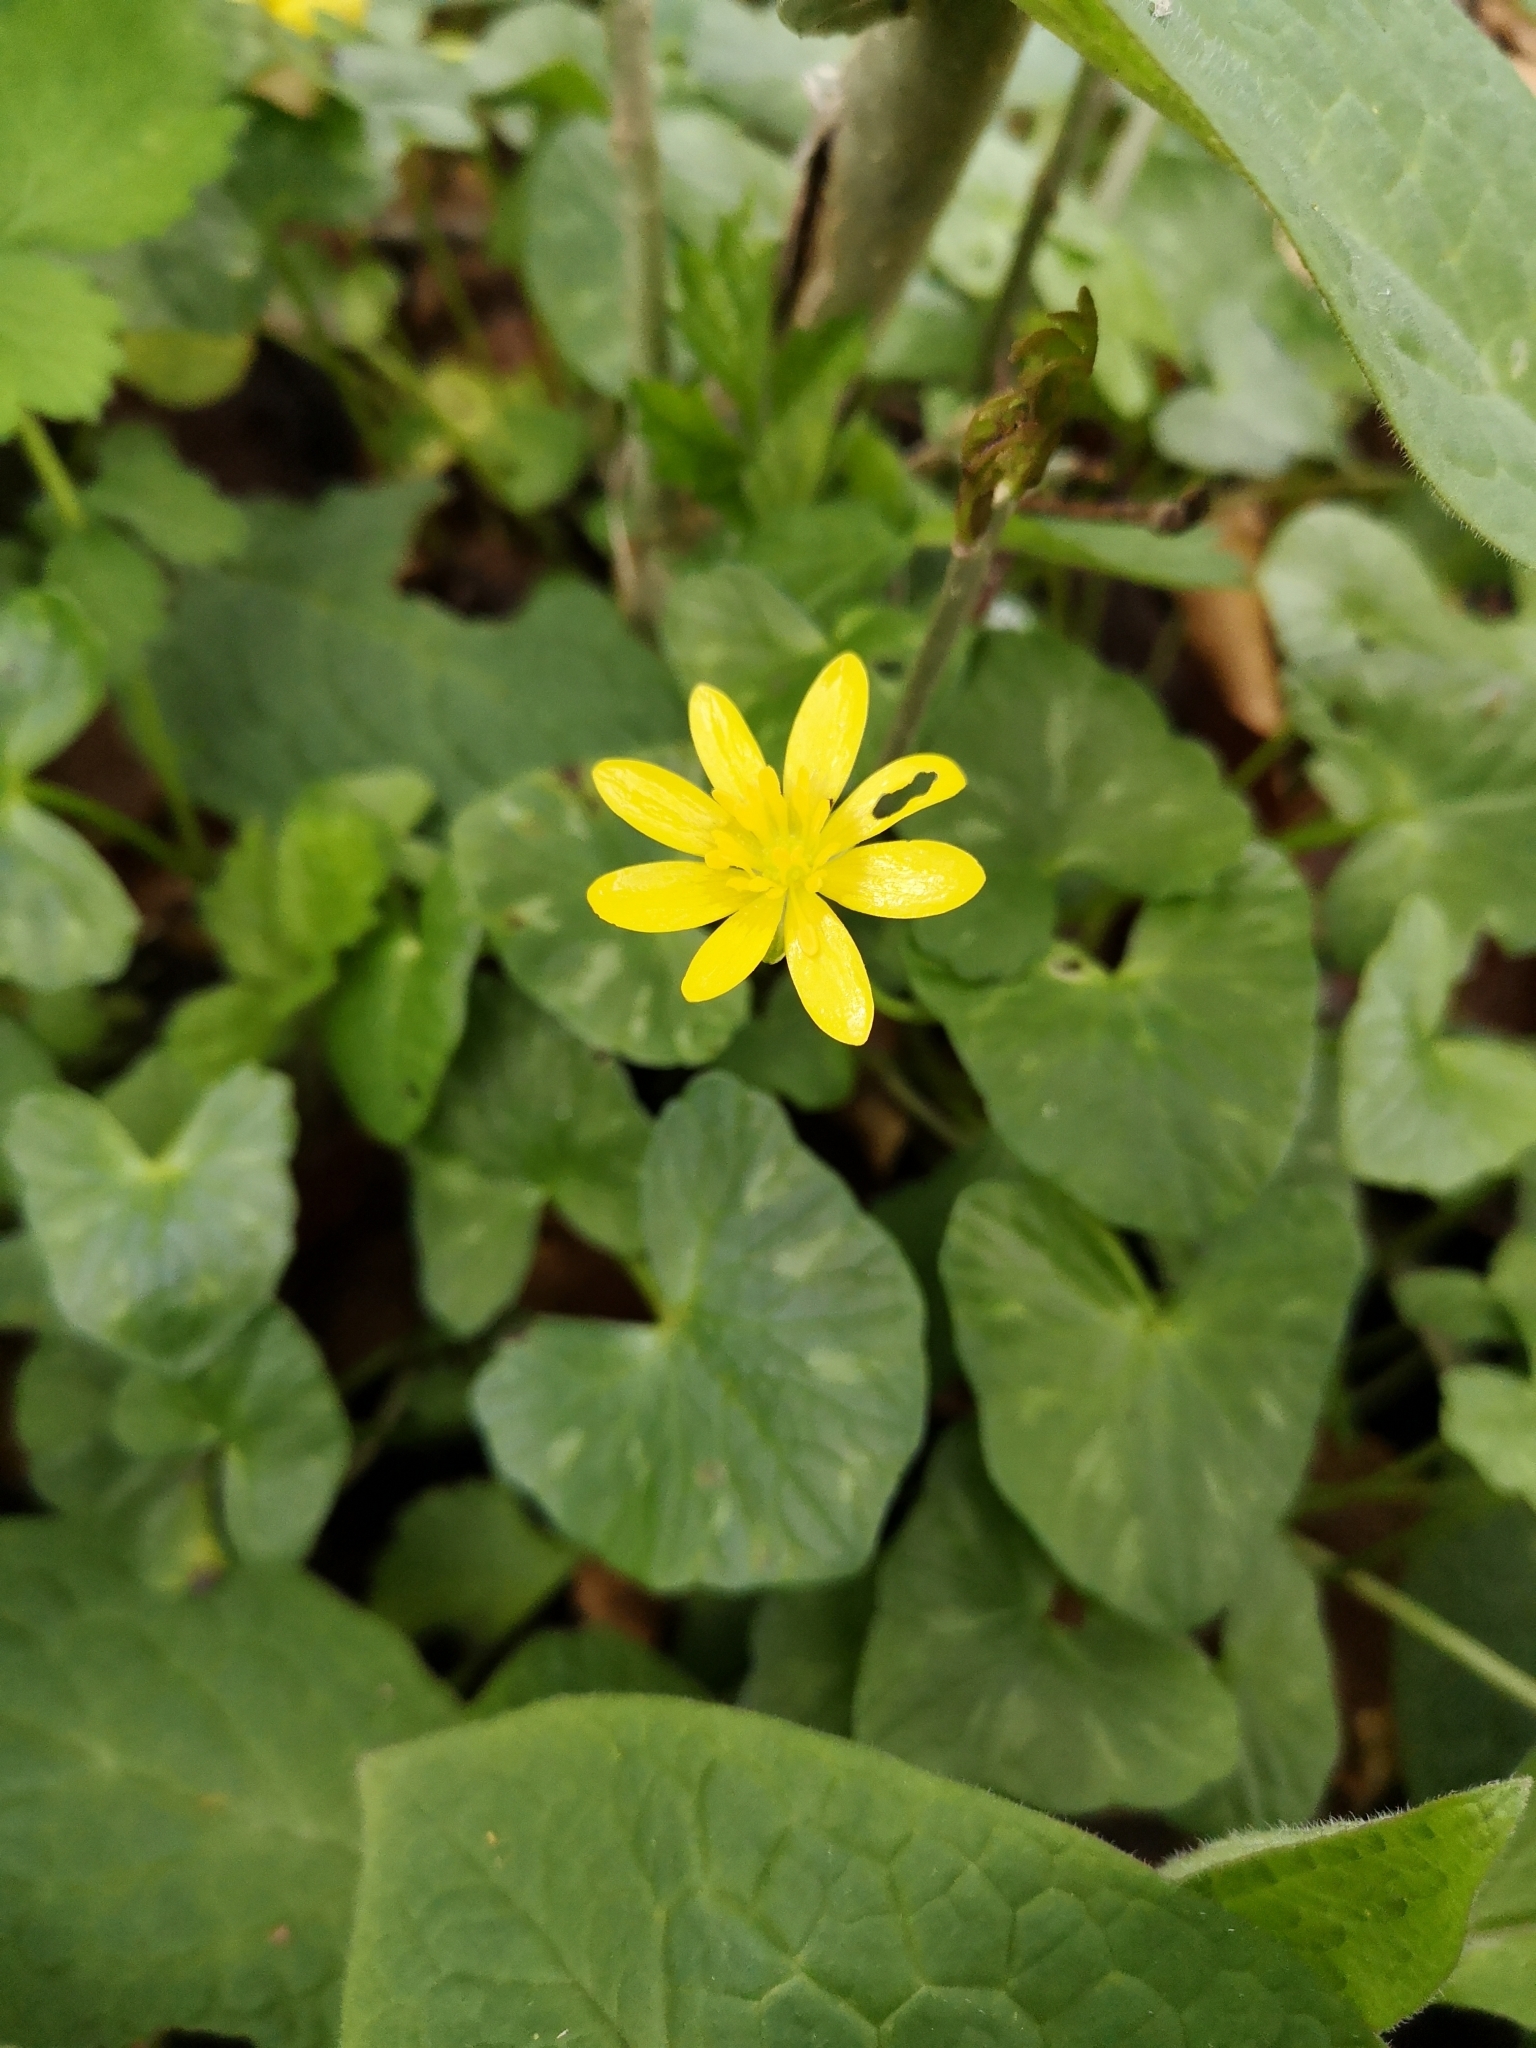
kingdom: Plantae
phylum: Tracheophyta
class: Magnoliopsida
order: Ranunculales
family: Ranunculaceae
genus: Ficaria
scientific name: Ficaria verna
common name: Lesser celandine
